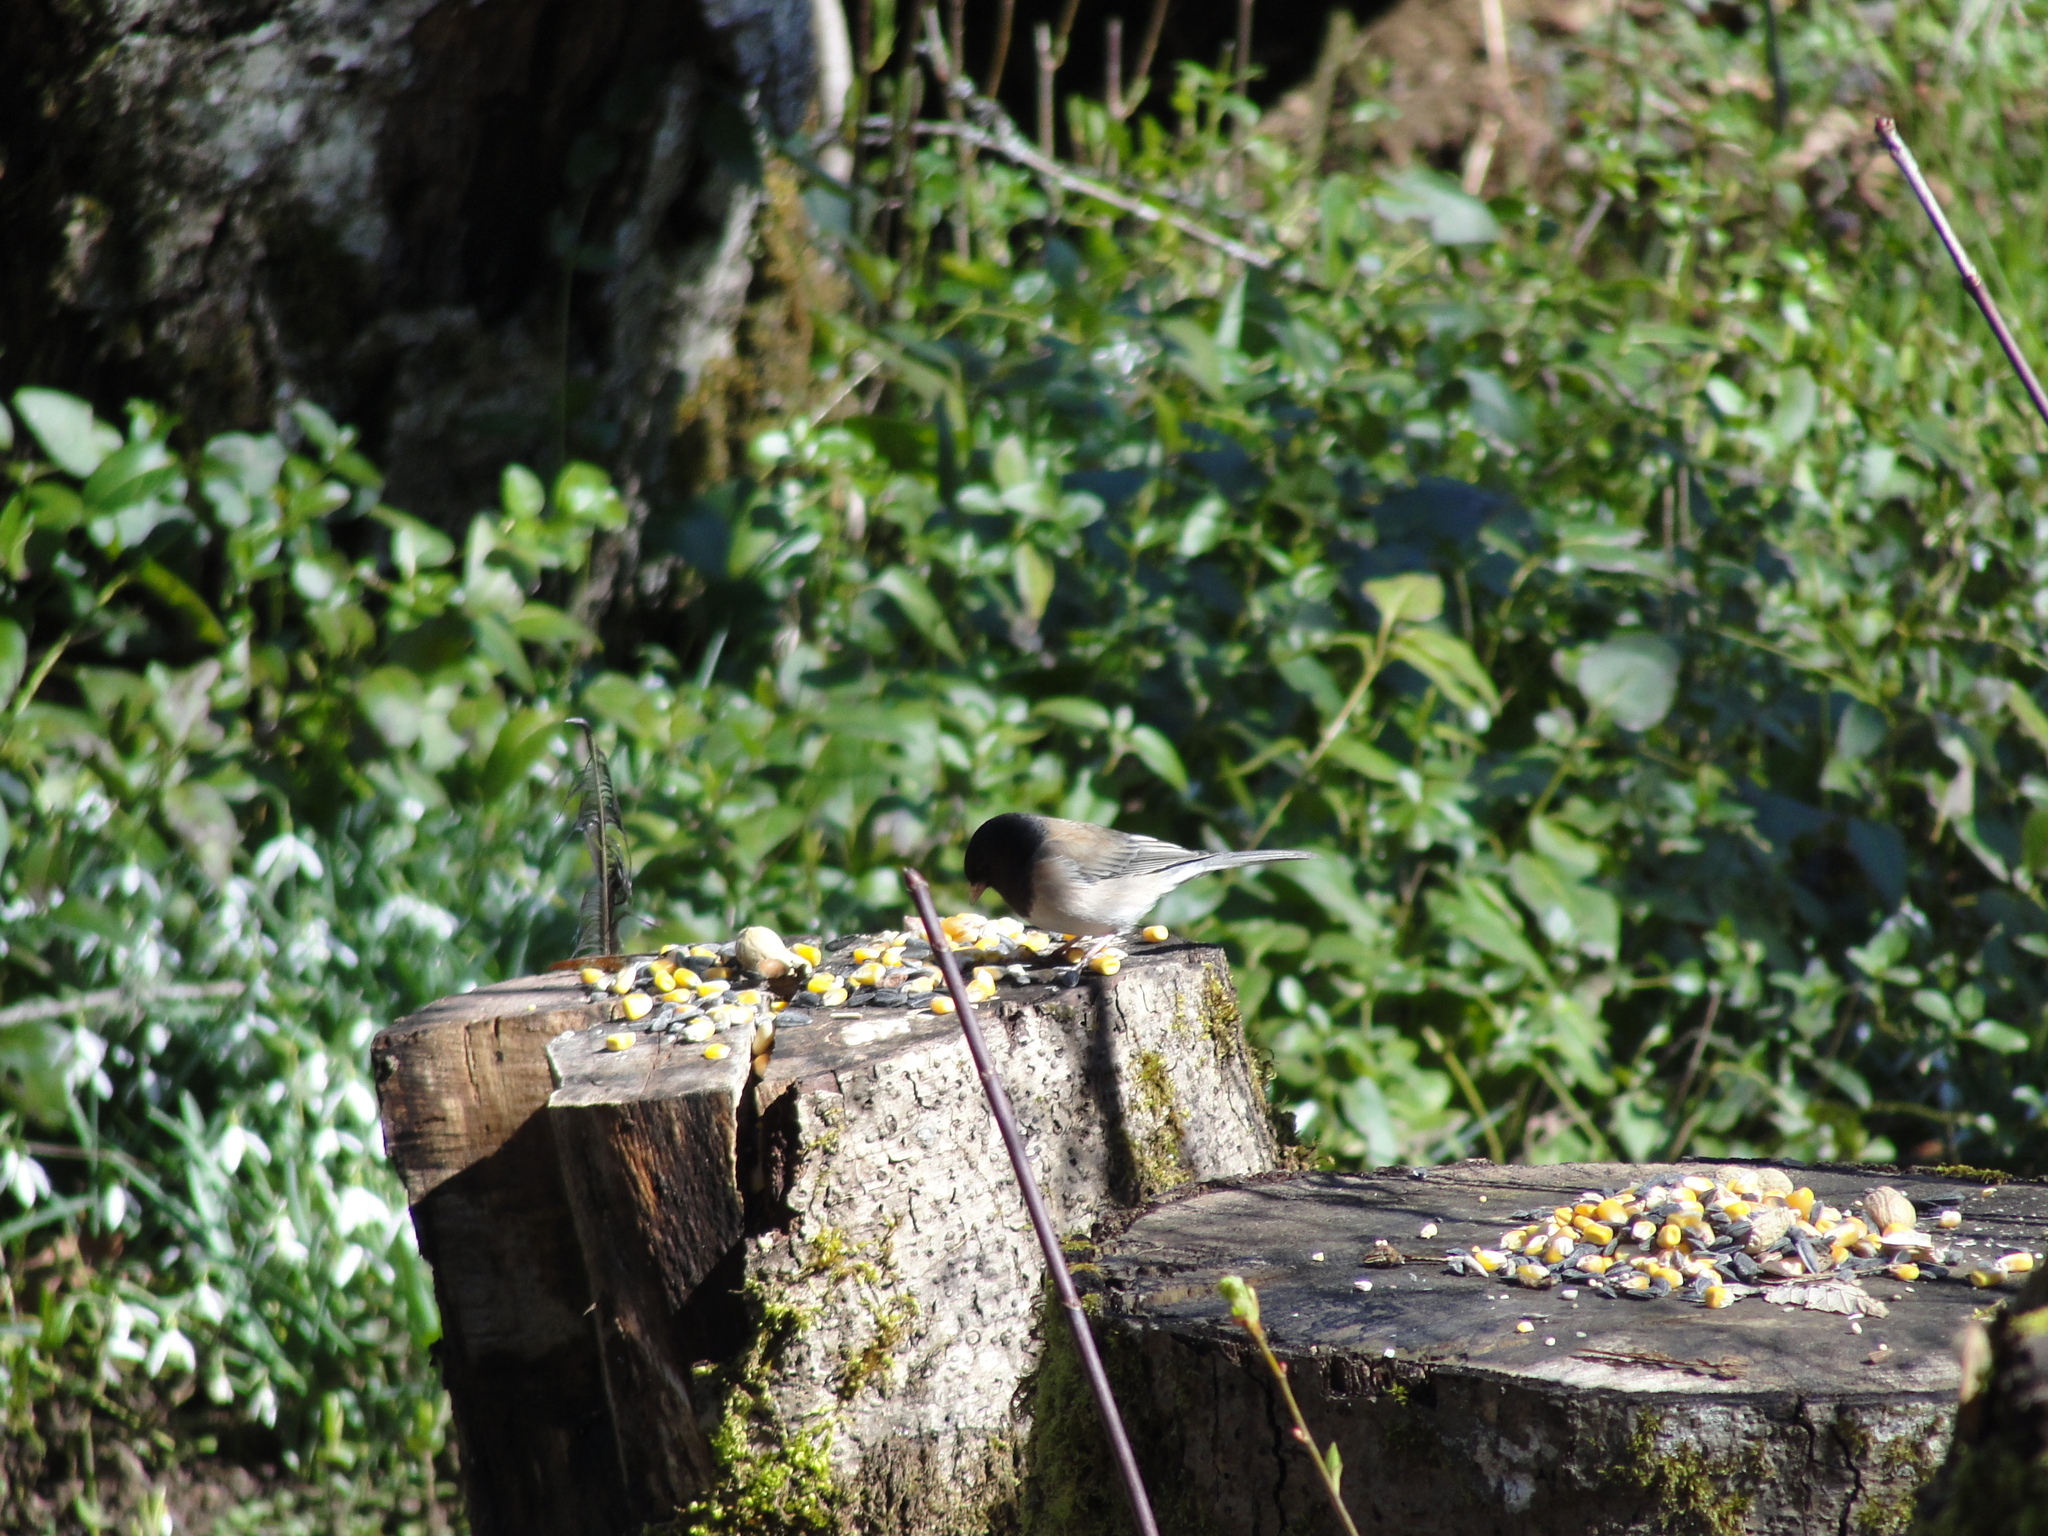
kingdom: Animalia
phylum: Chordata
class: Aves
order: Passeriformes
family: Passerellidae
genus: Junco
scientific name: Junco hyemalis
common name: Dark-eyed junco
